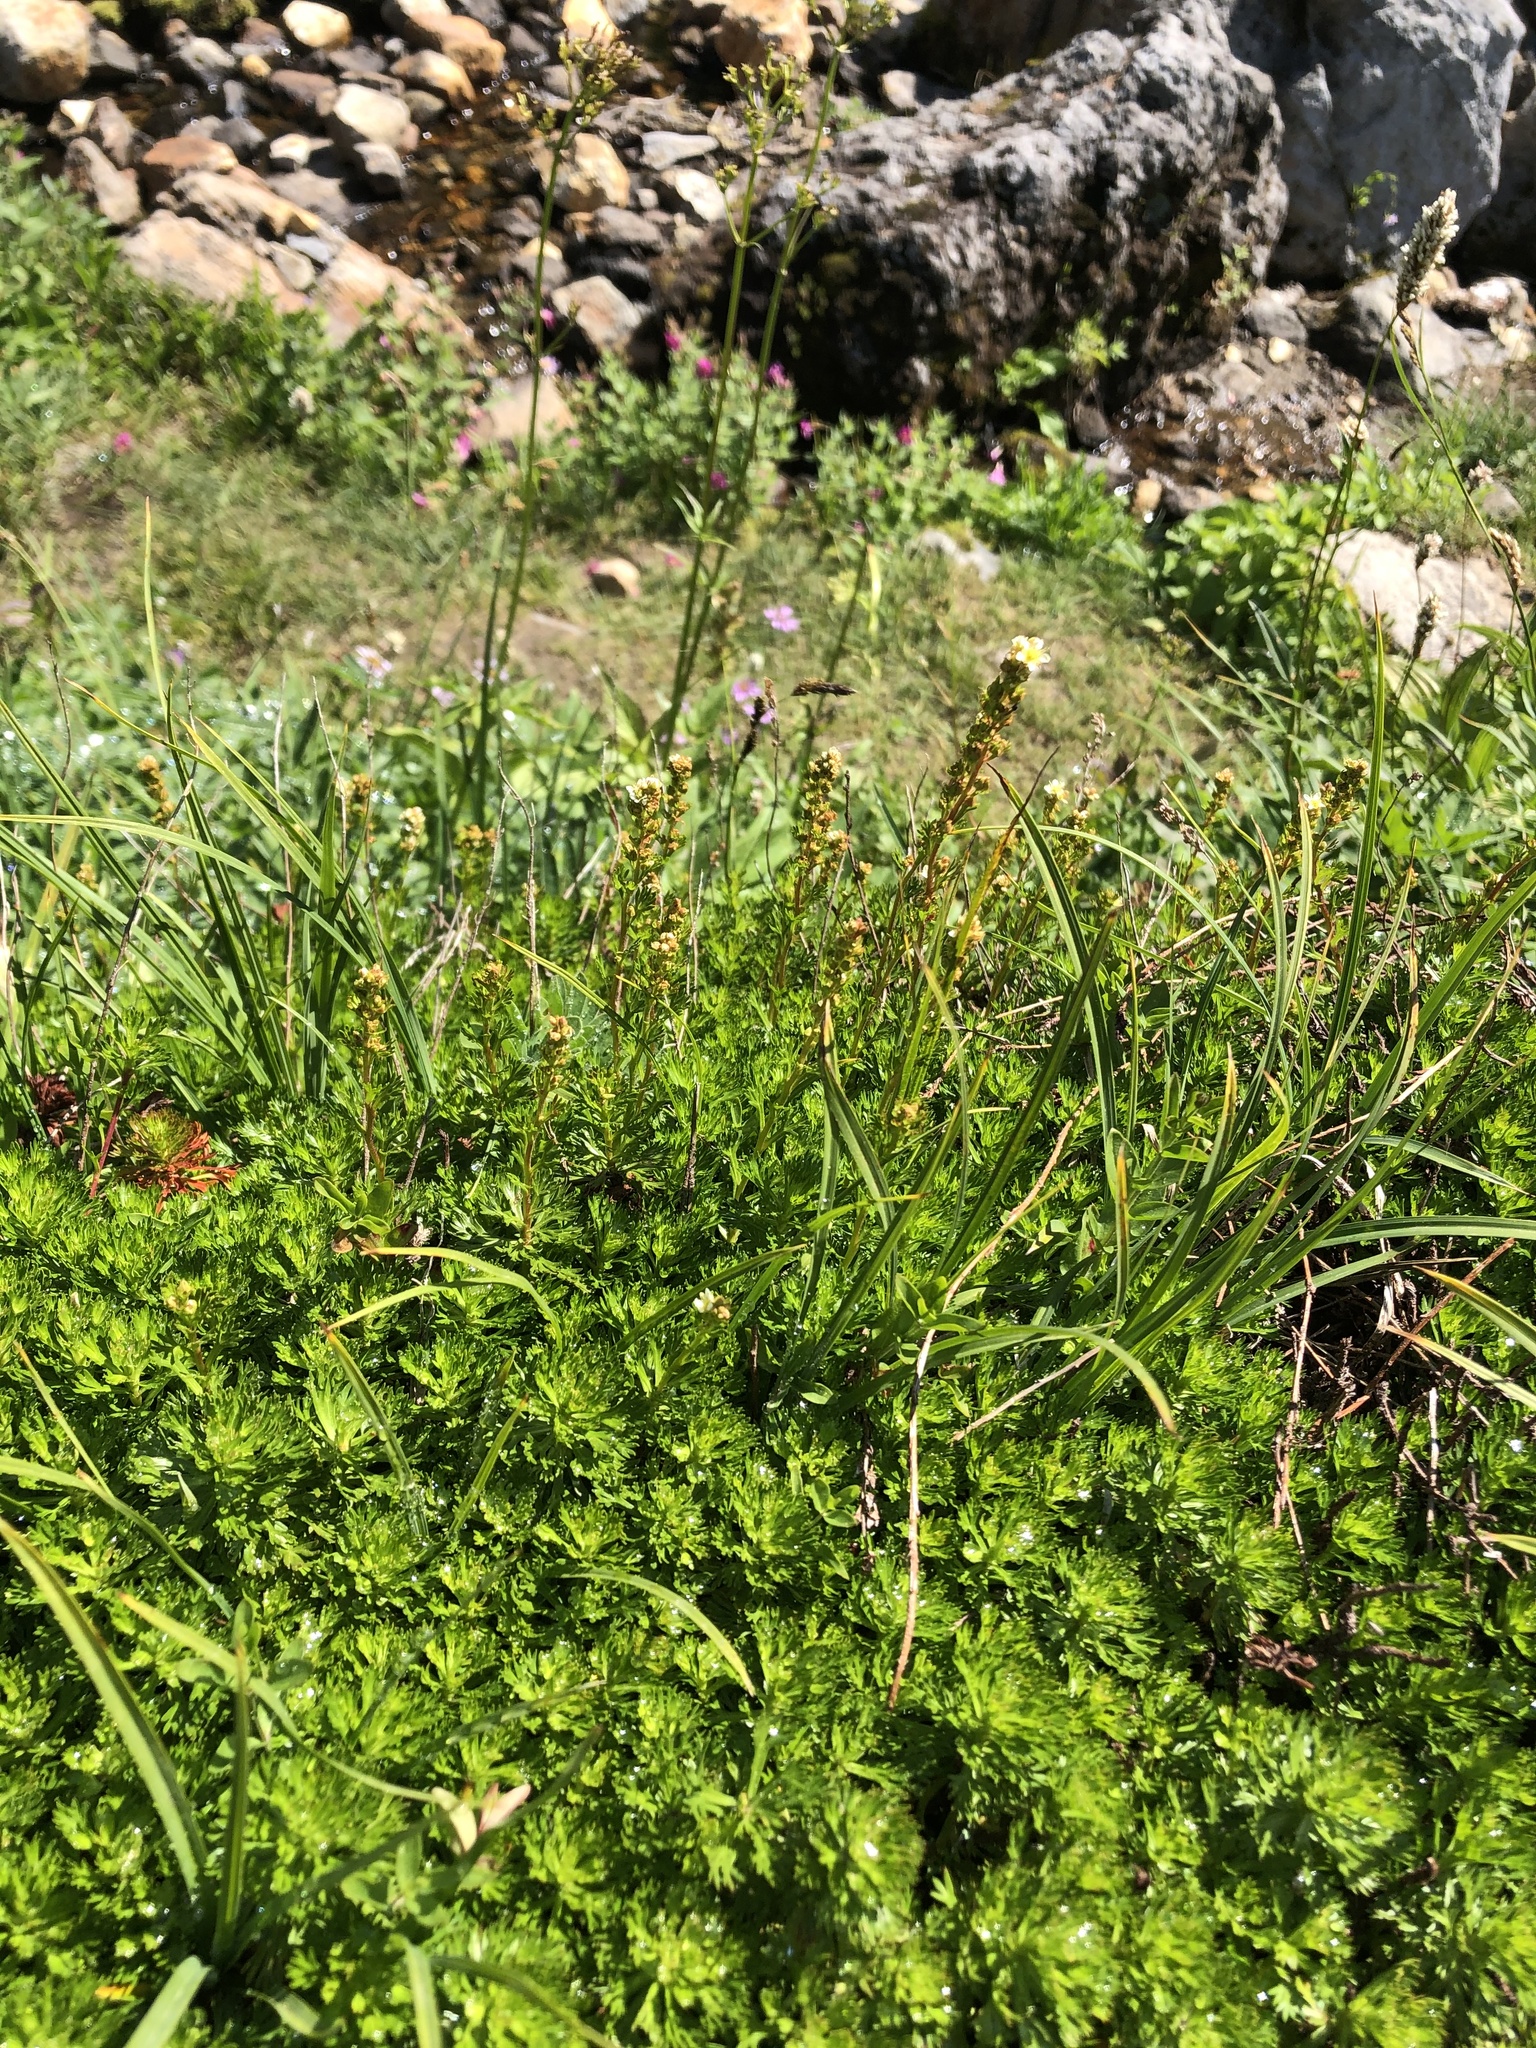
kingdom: Plantae
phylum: Tracheophyta
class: Magnoliopsida
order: Rosales
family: Rosaceae
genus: Luetkea
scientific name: Luetkea pectinata
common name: Partridgefoot
